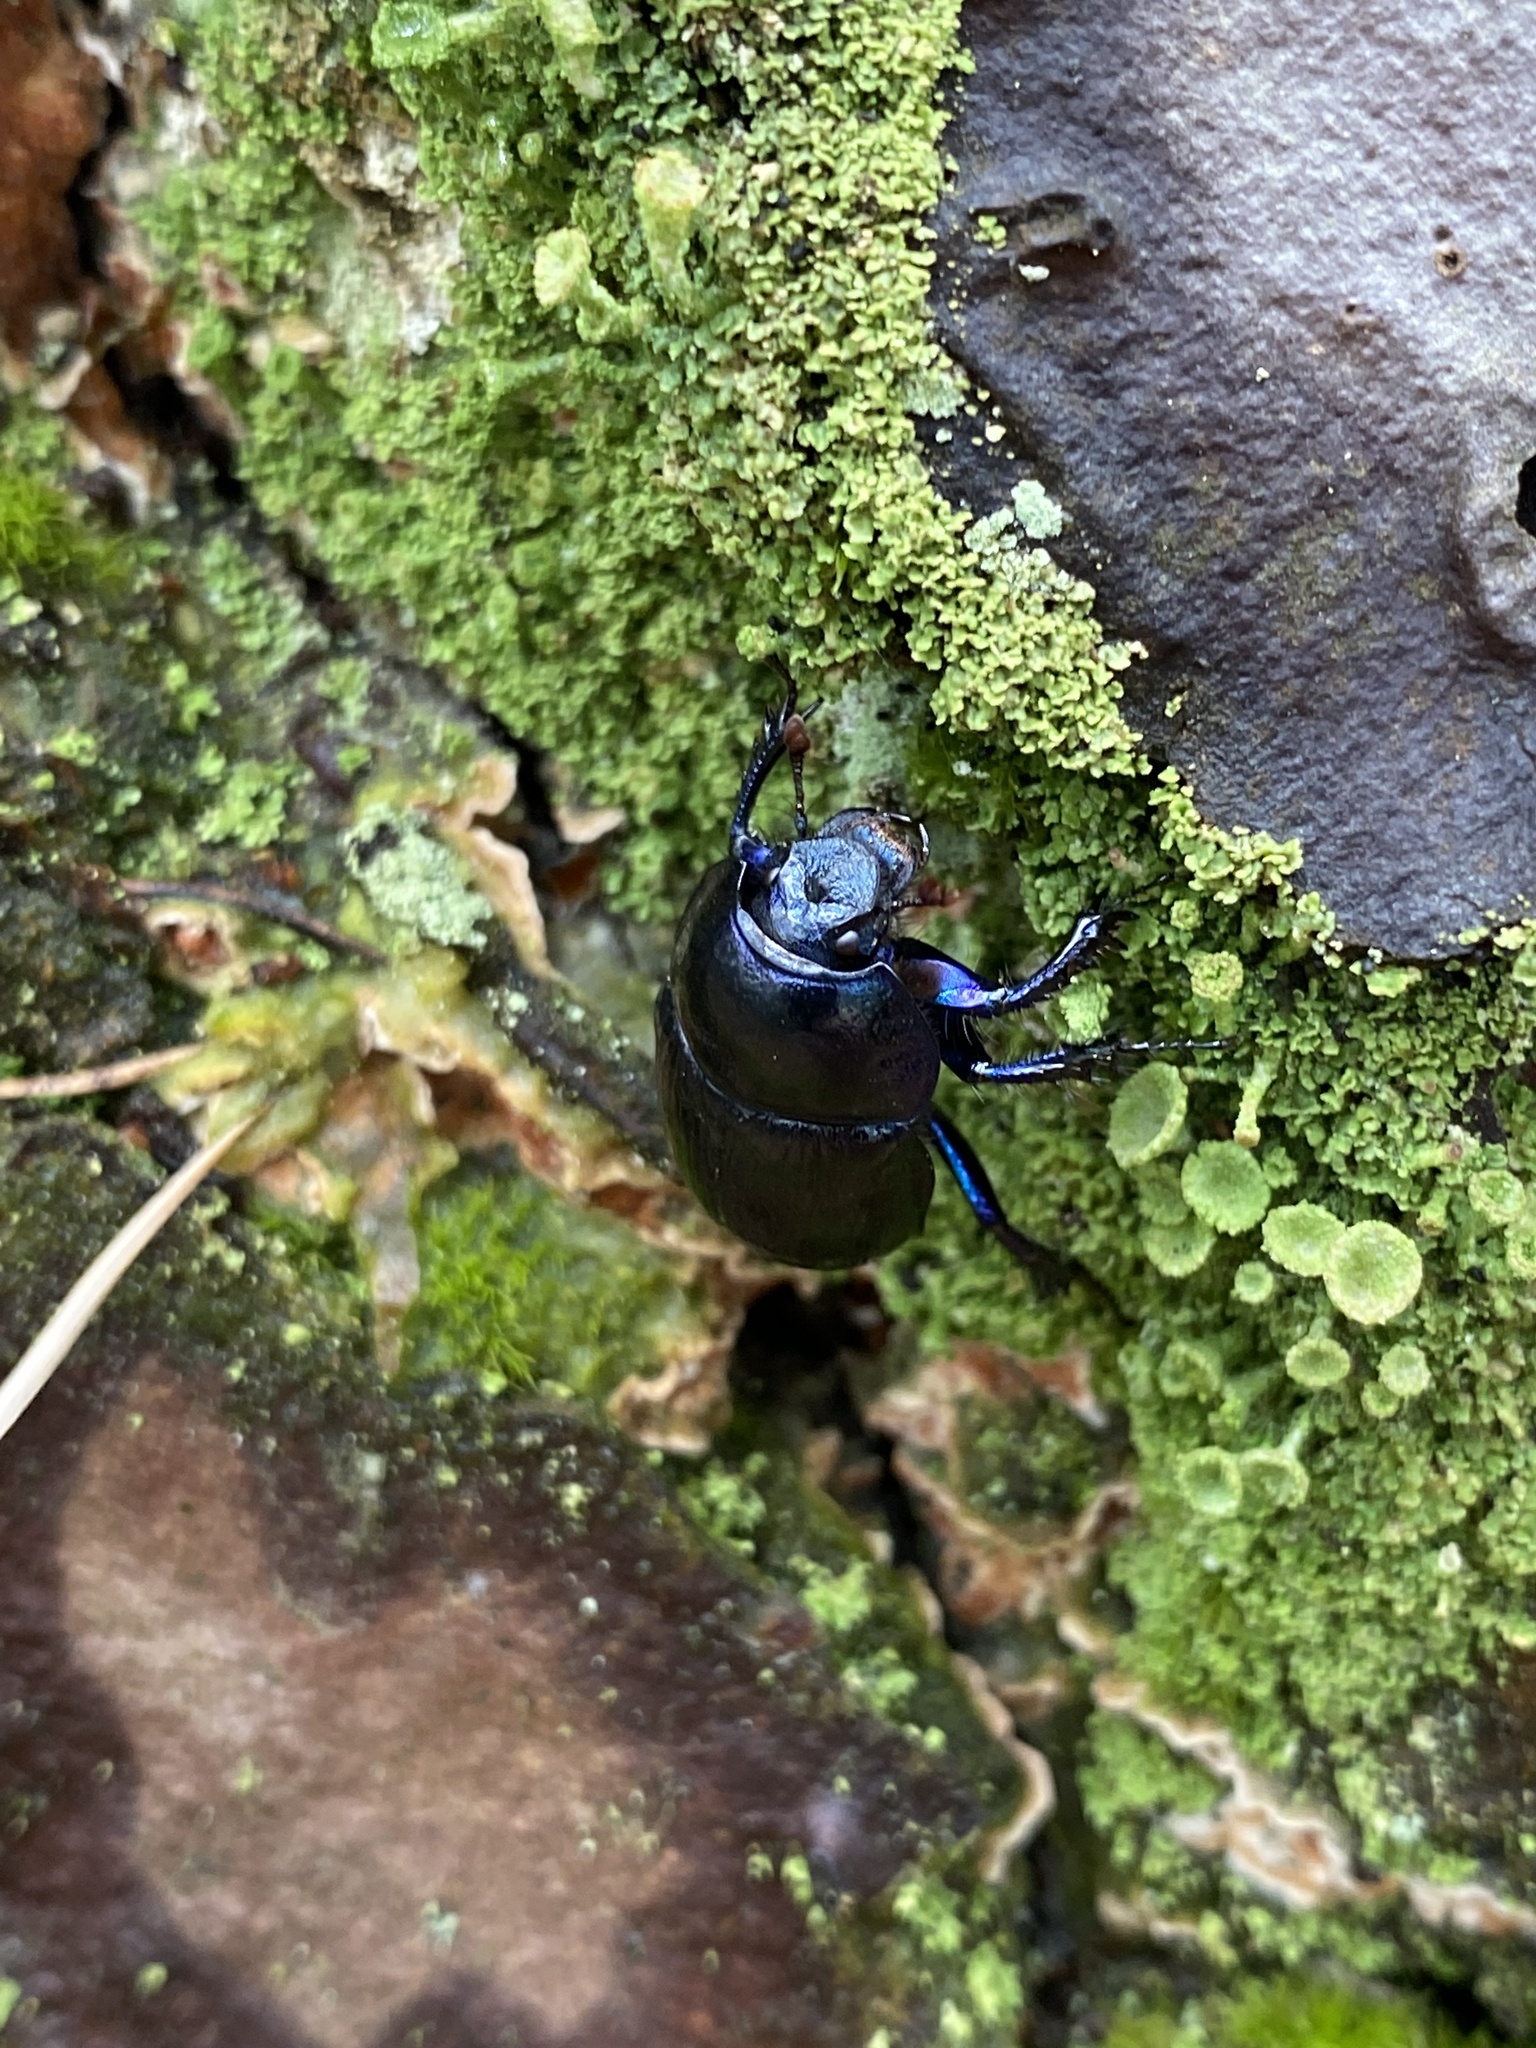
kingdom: Animalia
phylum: Arthropoda
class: Insecta
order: Coleoptera
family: Geotrupidae
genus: Anoplotrupes
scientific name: Anoplotrupes stercorosus
